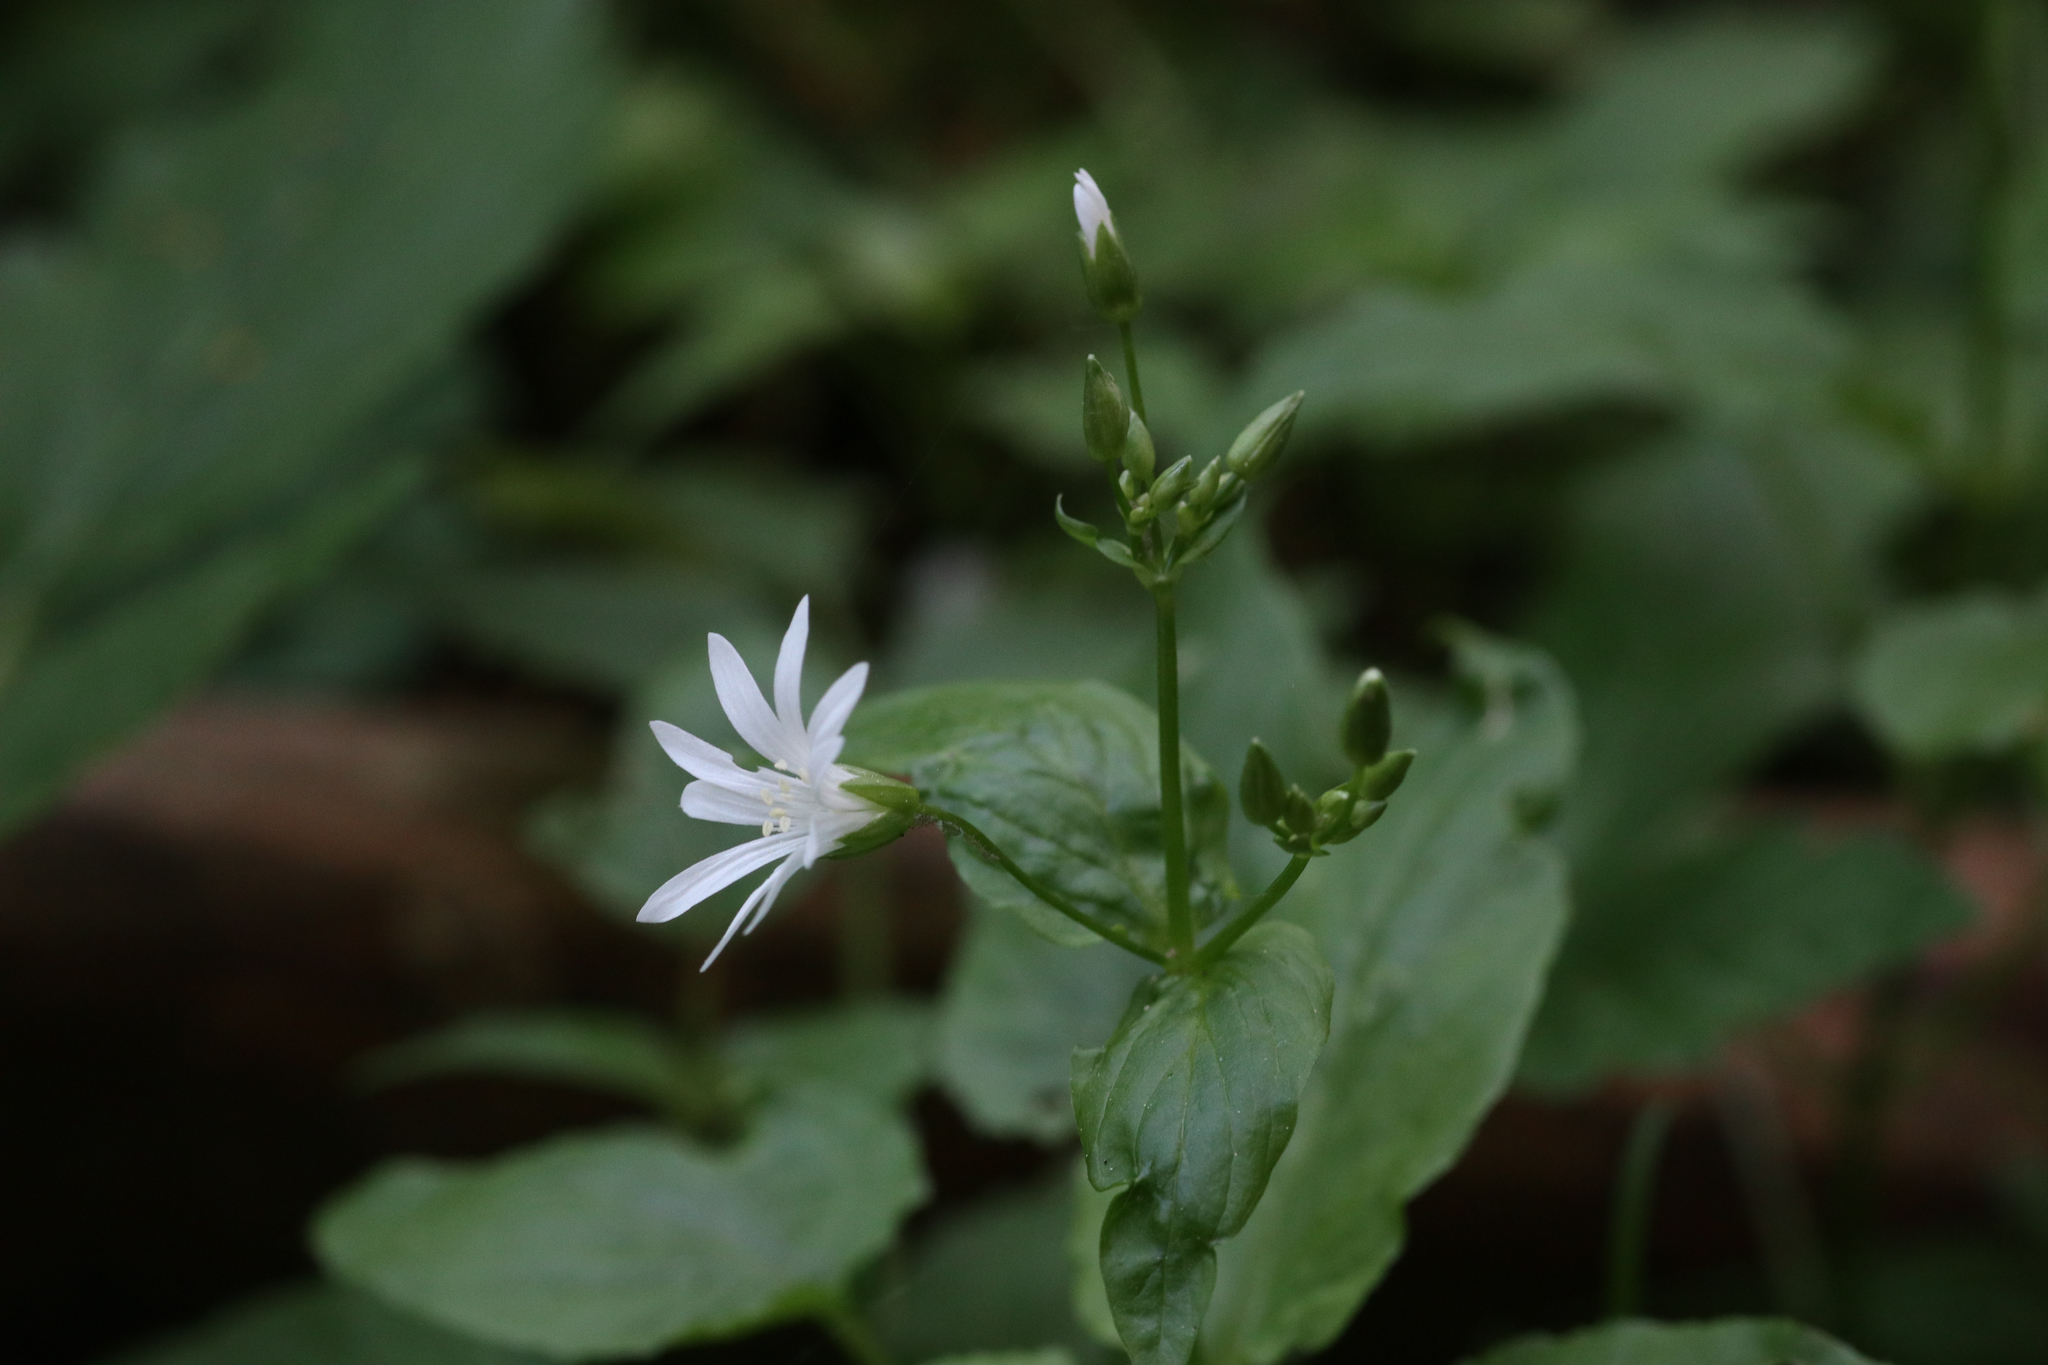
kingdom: Plantae
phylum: Tracheophyta
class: Magnoliopsida
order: Caryophyllales
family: Caryophyllaceae
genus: Stellaria
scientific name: Stellaria nemorum
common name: Wood stitchwort
